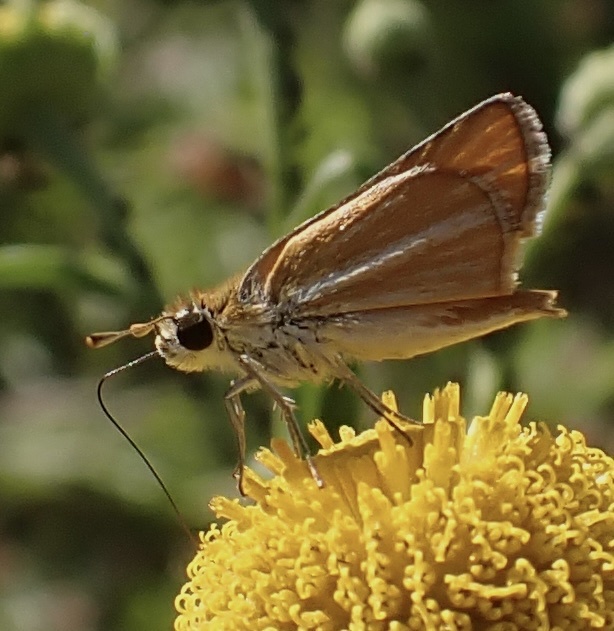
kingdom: Animalia
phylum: Arthropoda
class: Insecta
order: Lepidoptera
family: Hesperiidae
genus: Copaeodes
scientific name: Copaeodes minima
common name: Southern skipperling
